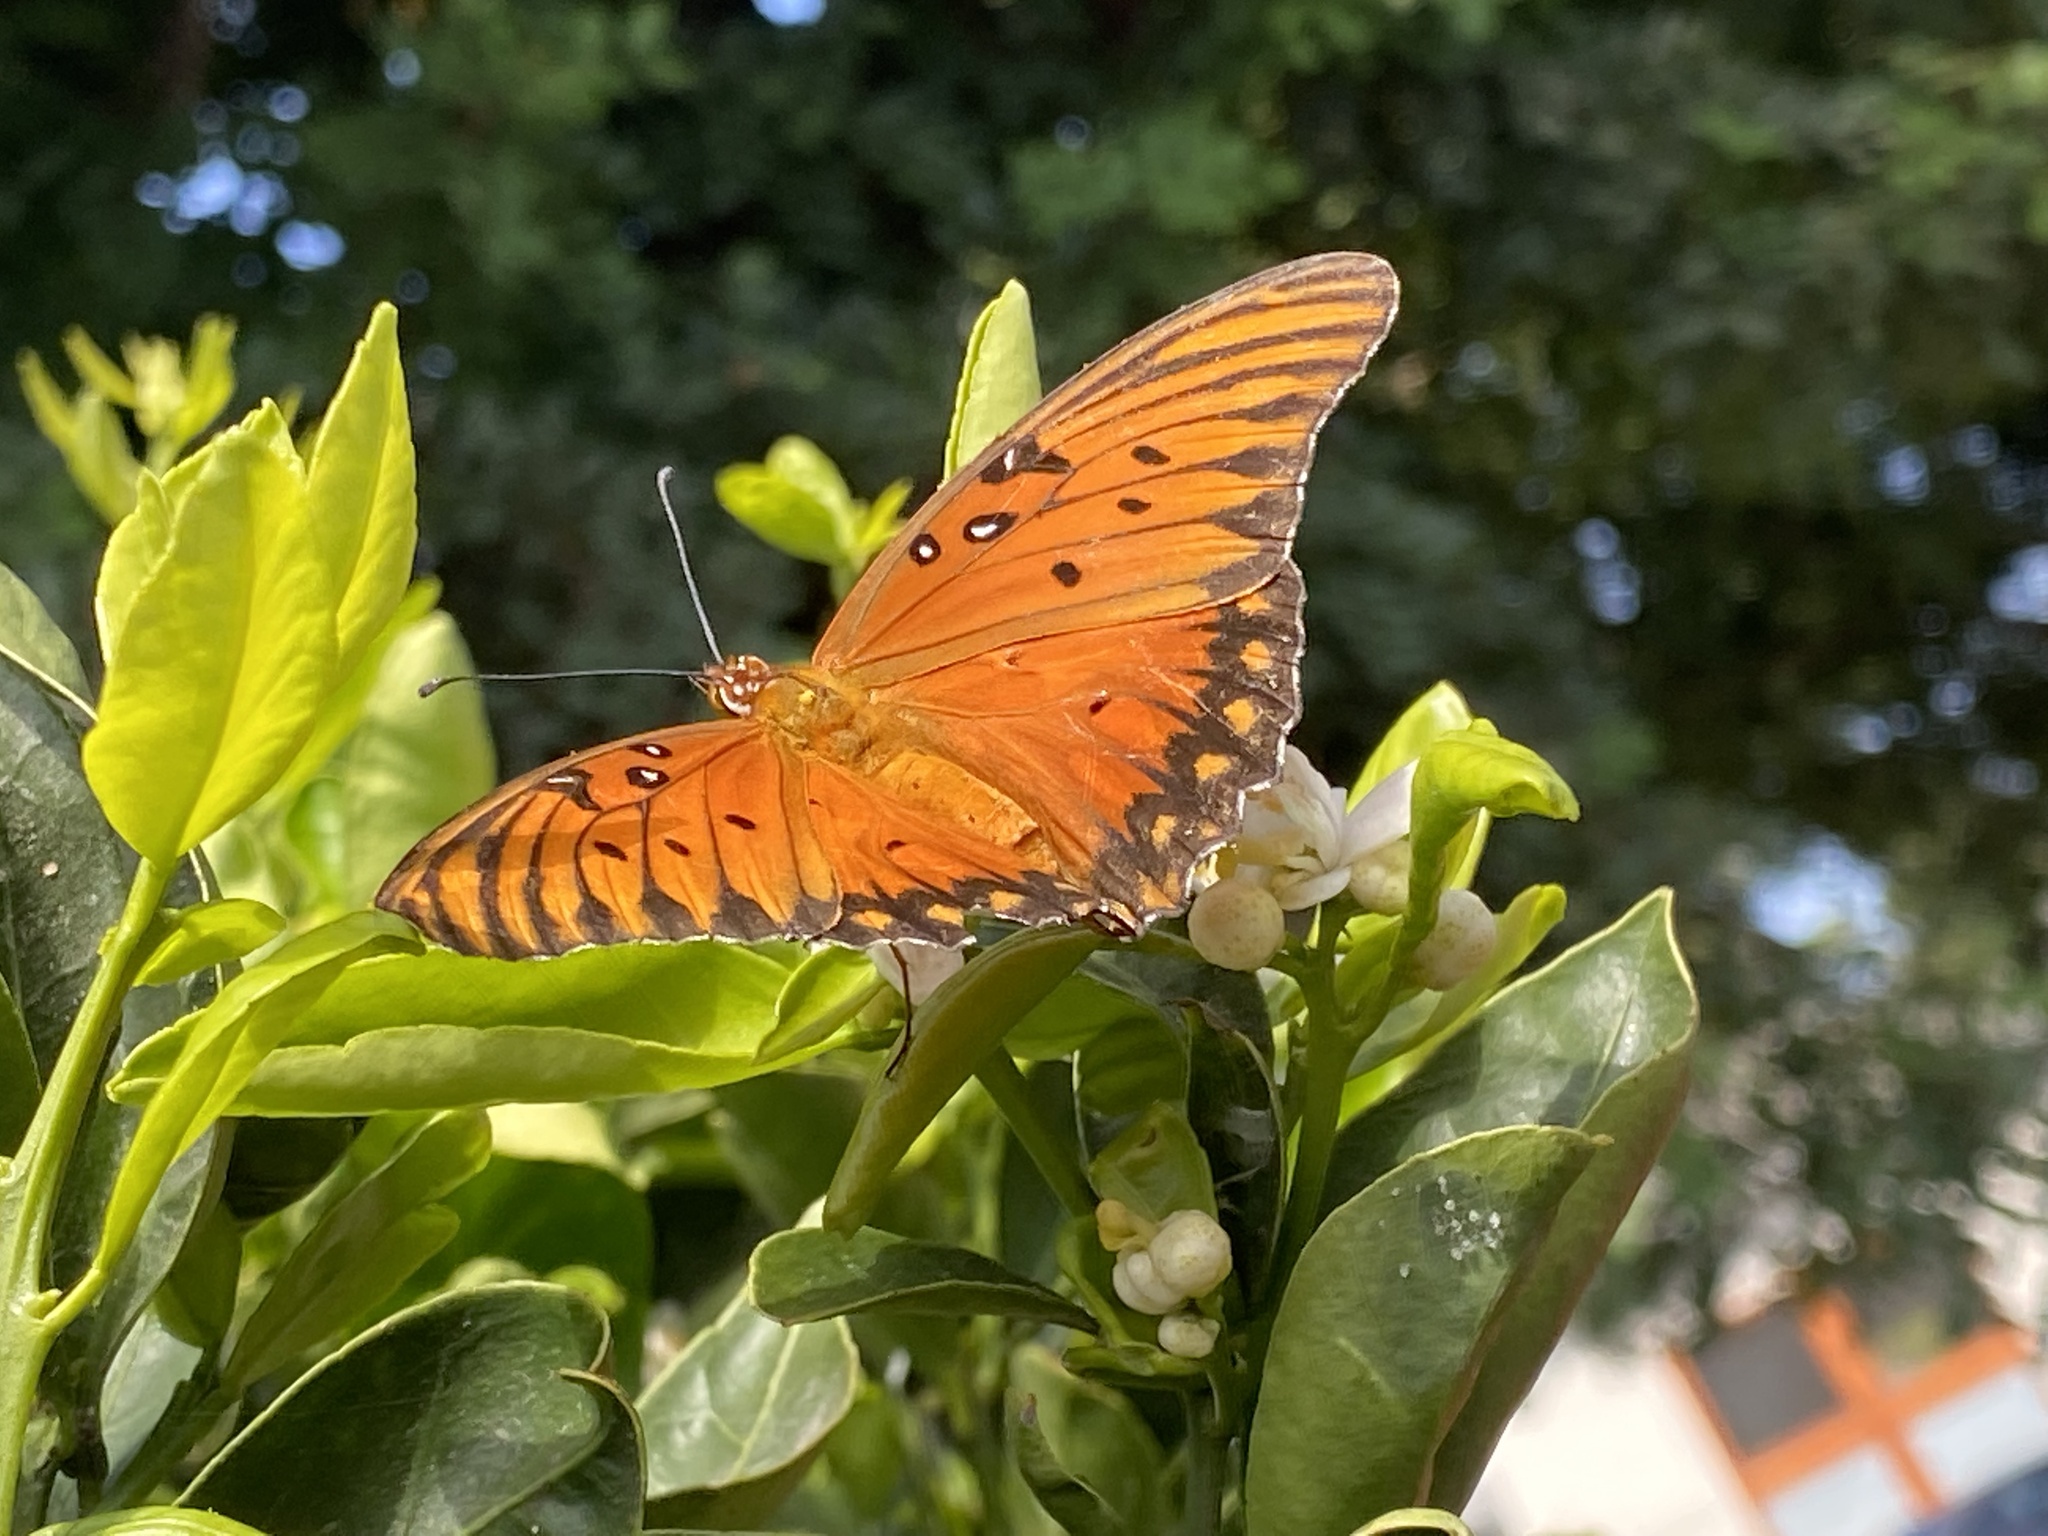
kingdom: Animalia
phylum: Arthropoda
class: Insecta
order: Lepidoptera
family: Nymphalidae
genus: Dione
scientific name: Dione vanillae
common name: Gulf fritillary
